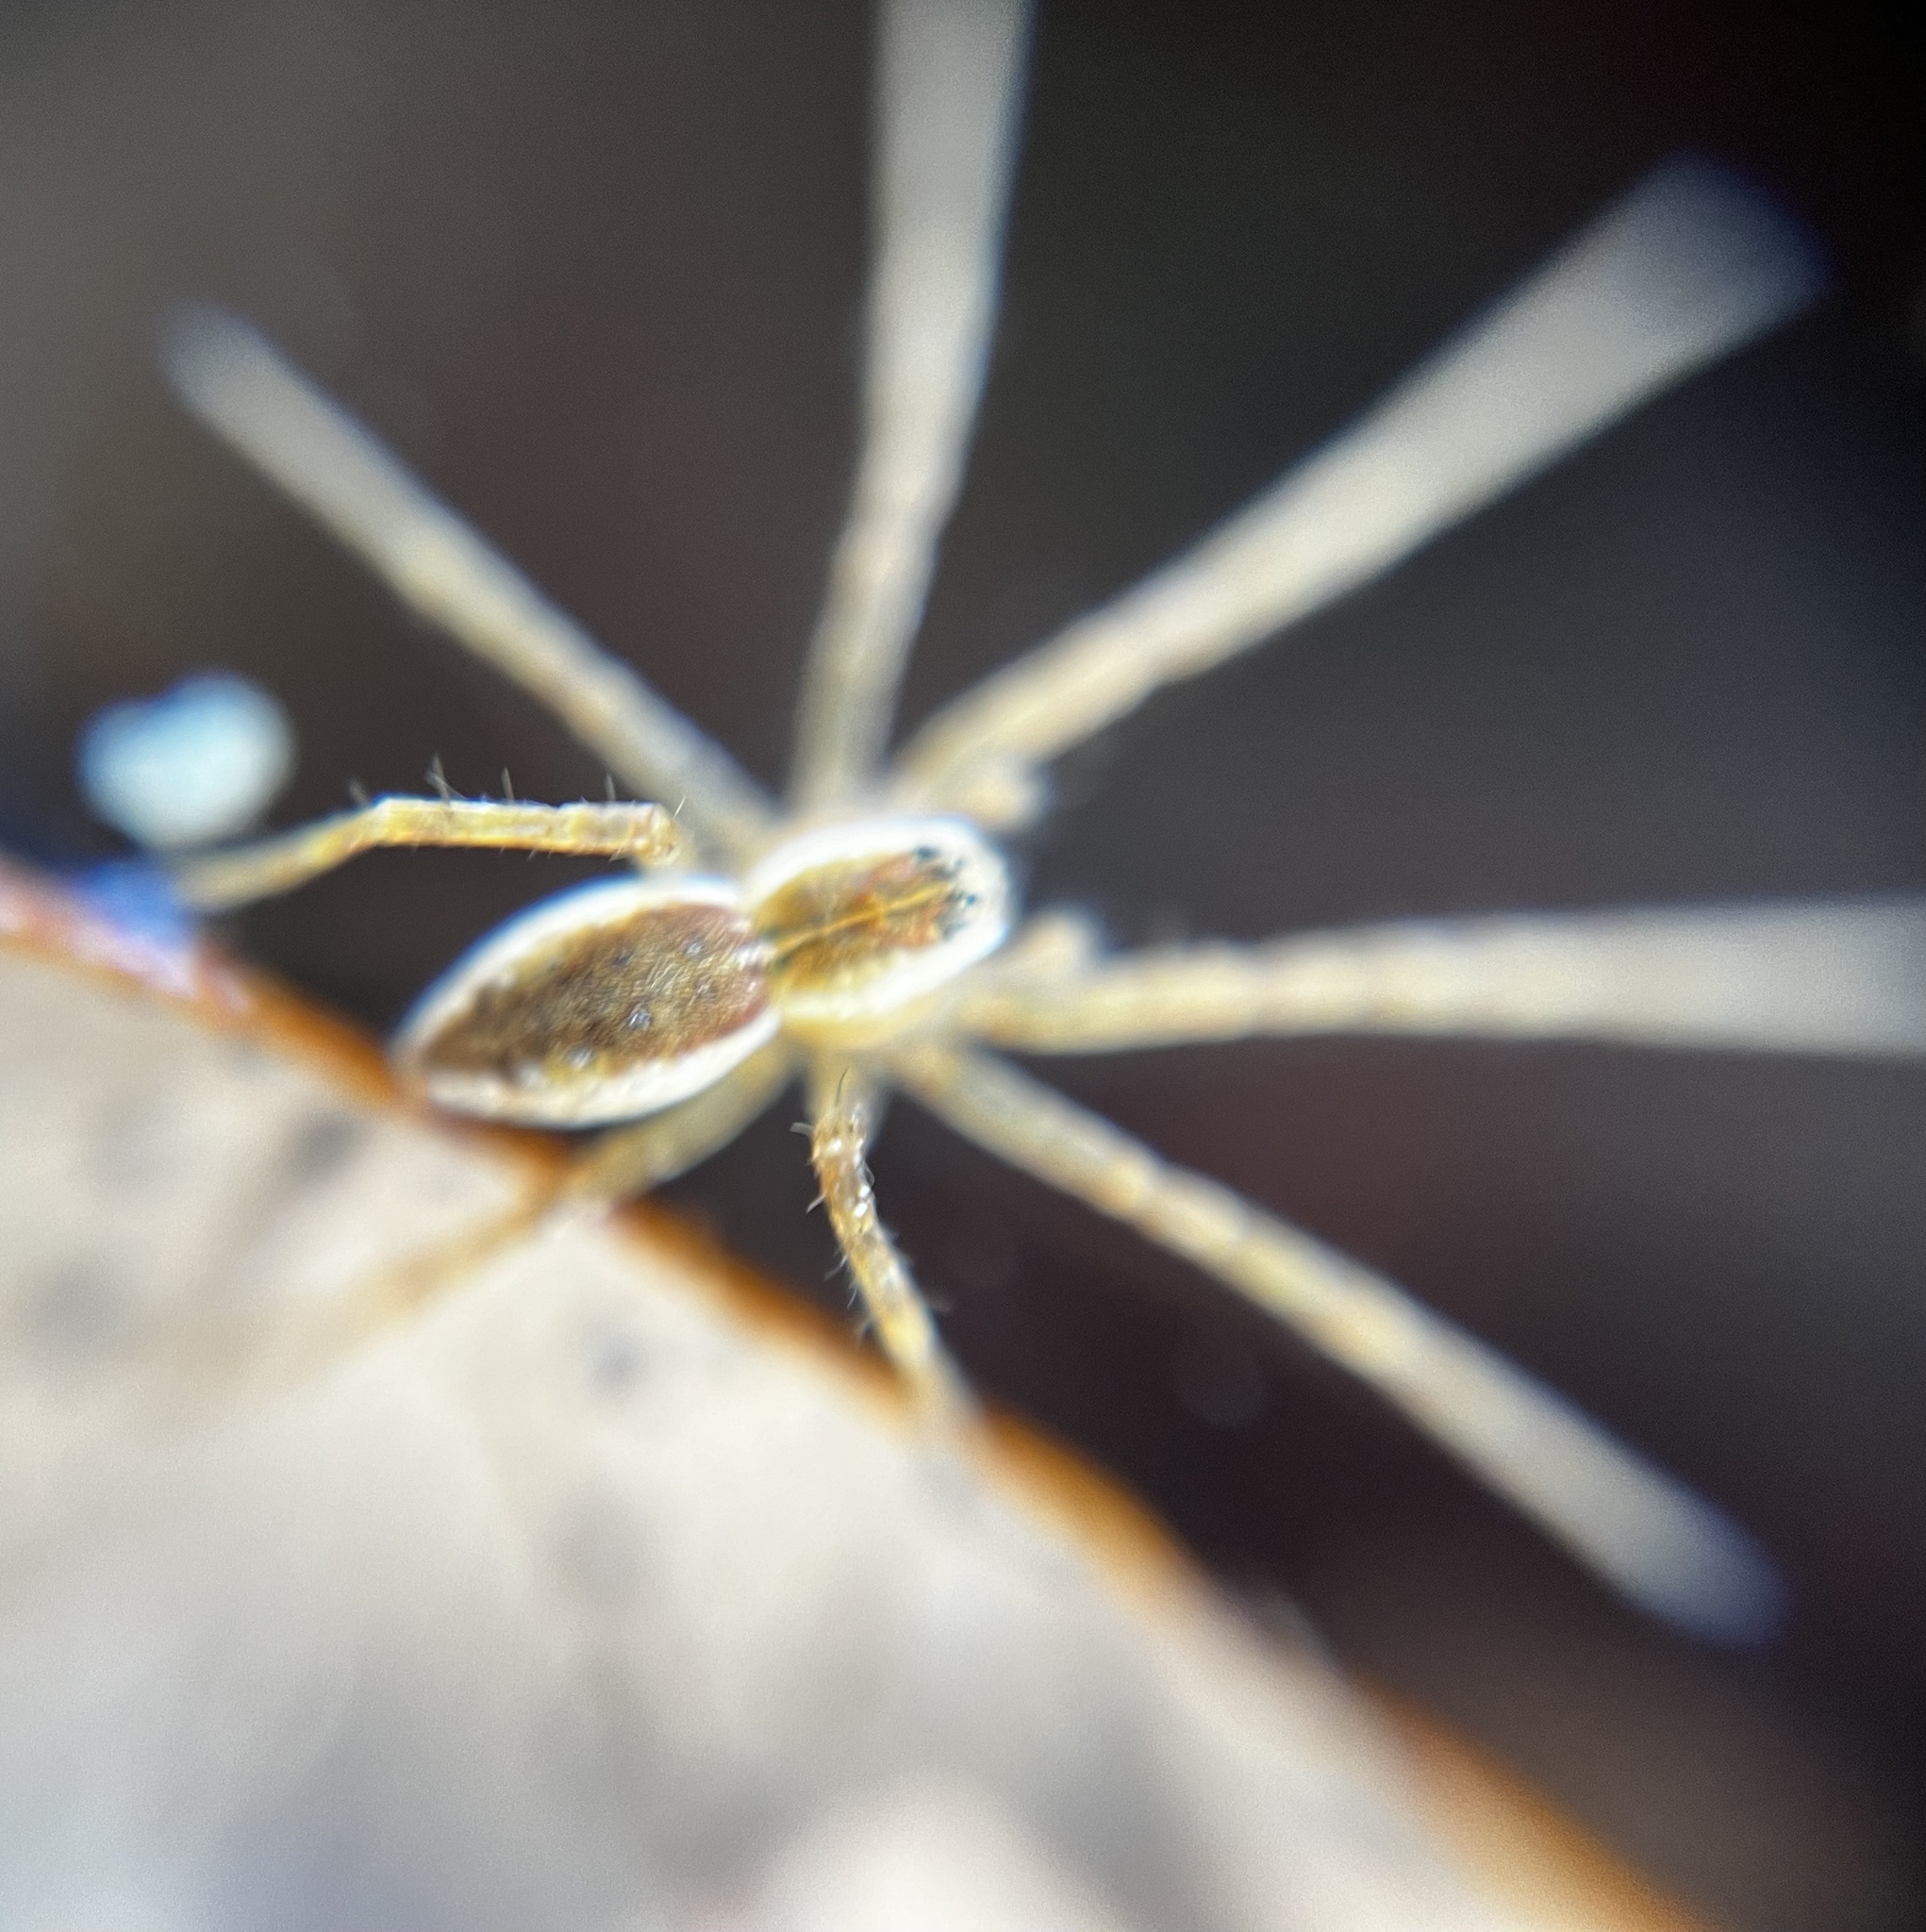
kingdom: Animalia
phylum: Arthropoda
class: Arachnida
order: Araneae
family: Pisauridae
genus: Dolomedes
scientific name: Dolomedes triton
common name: Six-spotted fishing spider
